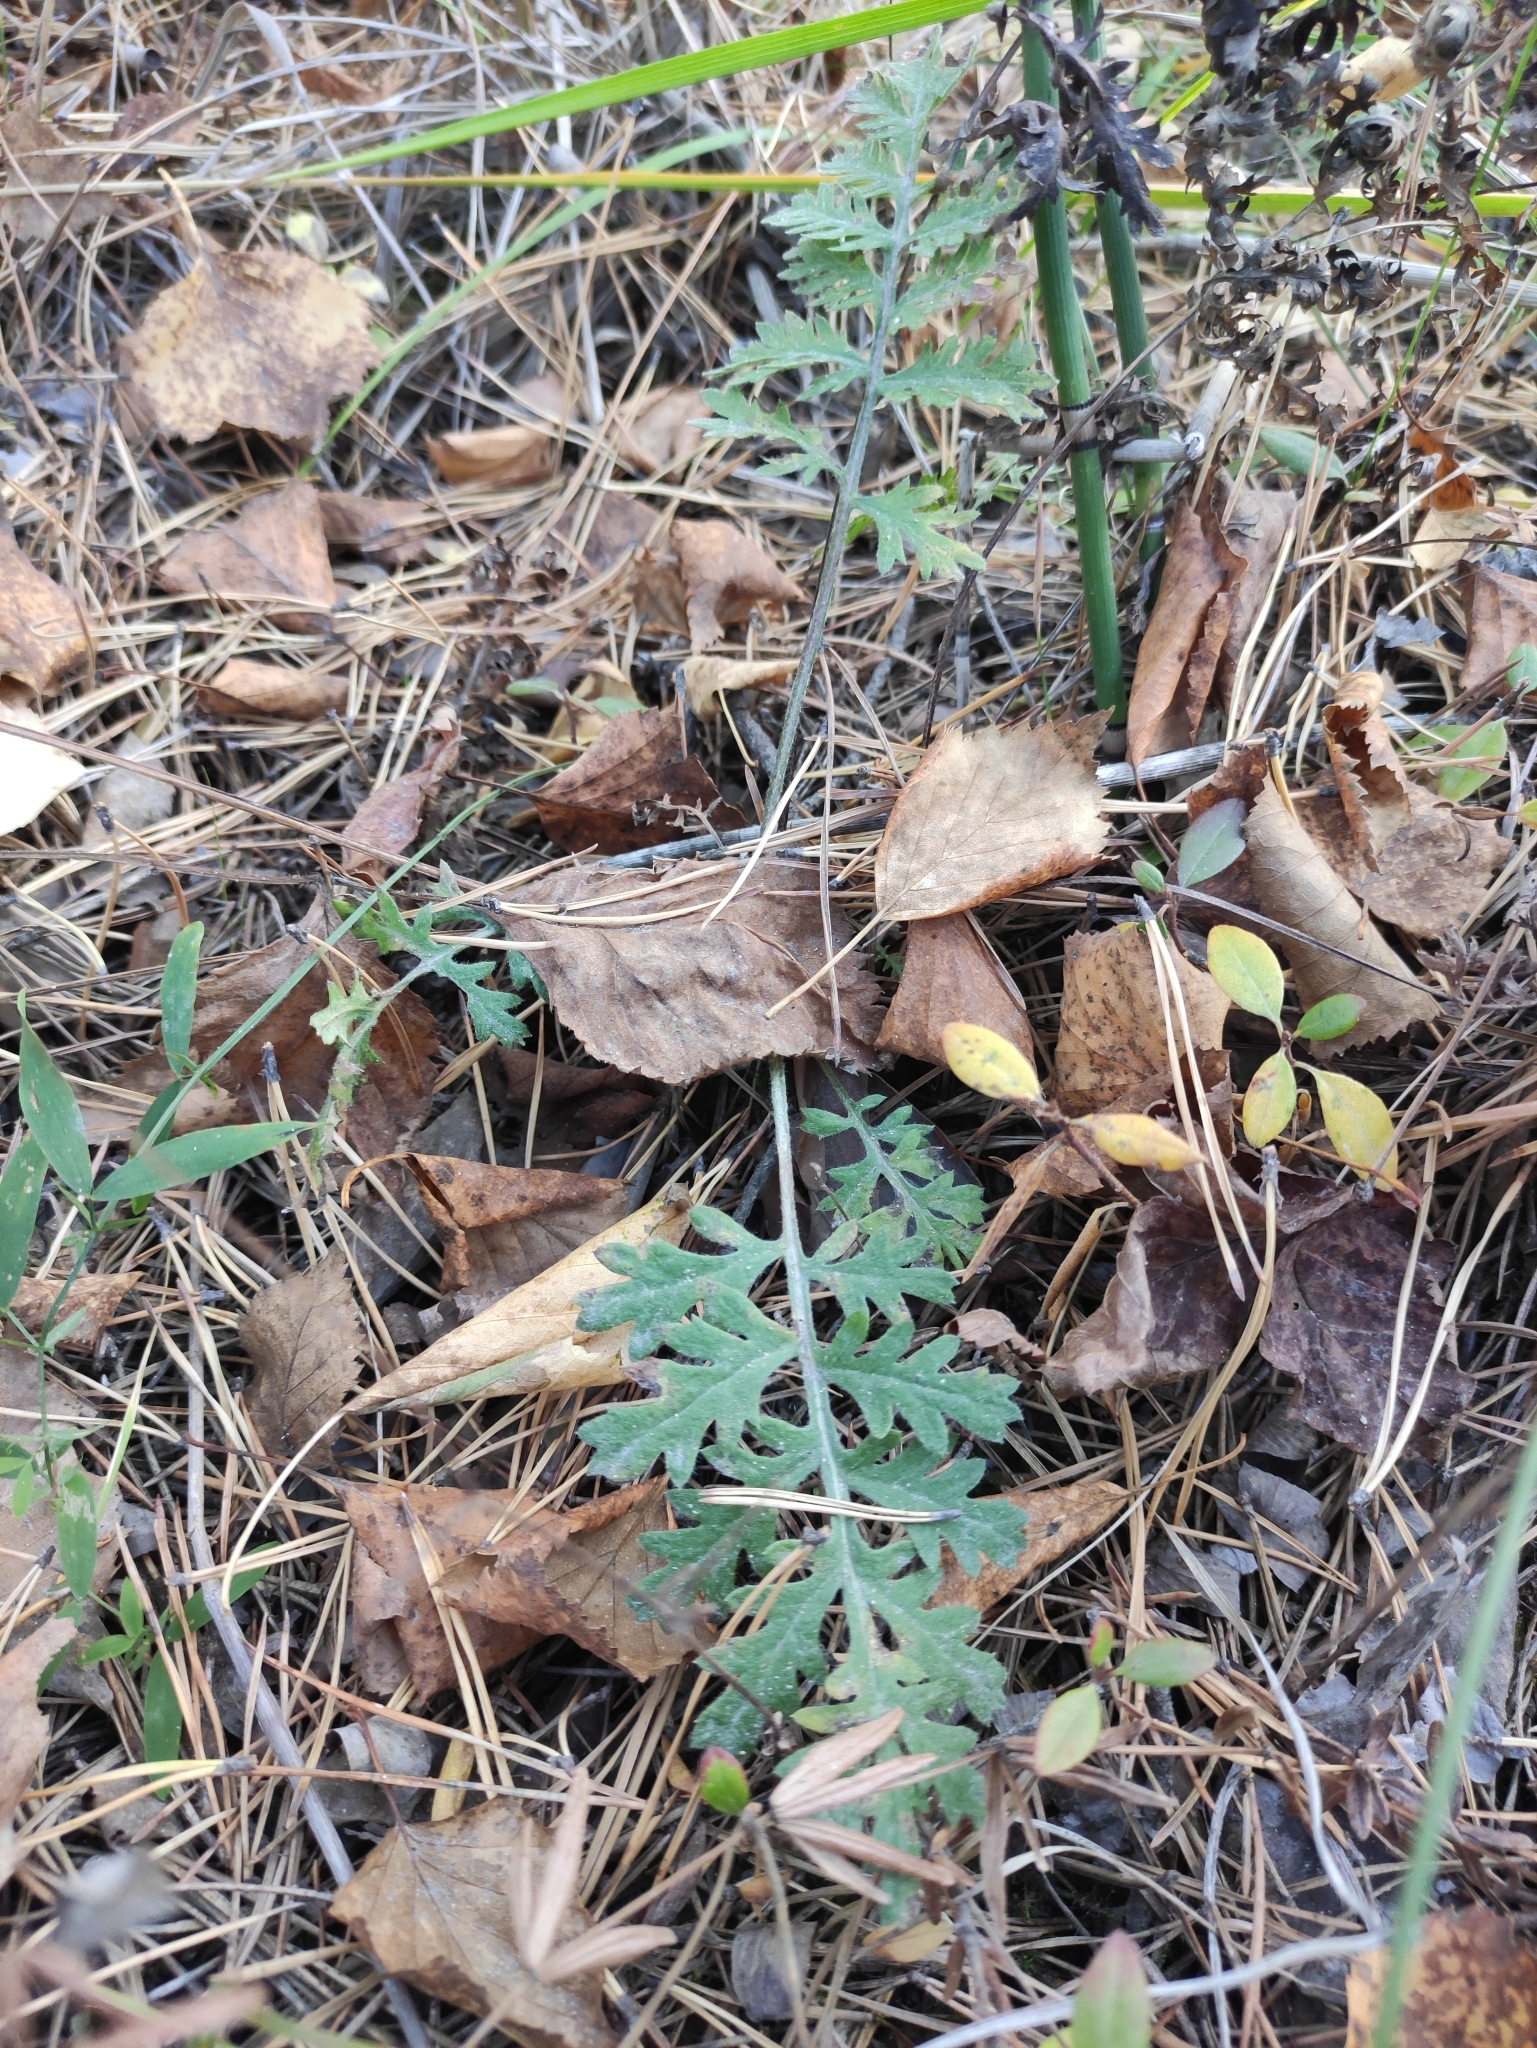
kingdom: Plantae
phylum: Tracheophyta
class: Magnoliopsida
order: Asterales
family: Asteraceae
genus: Artemisia
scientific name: Artemisia tanacetifolia
